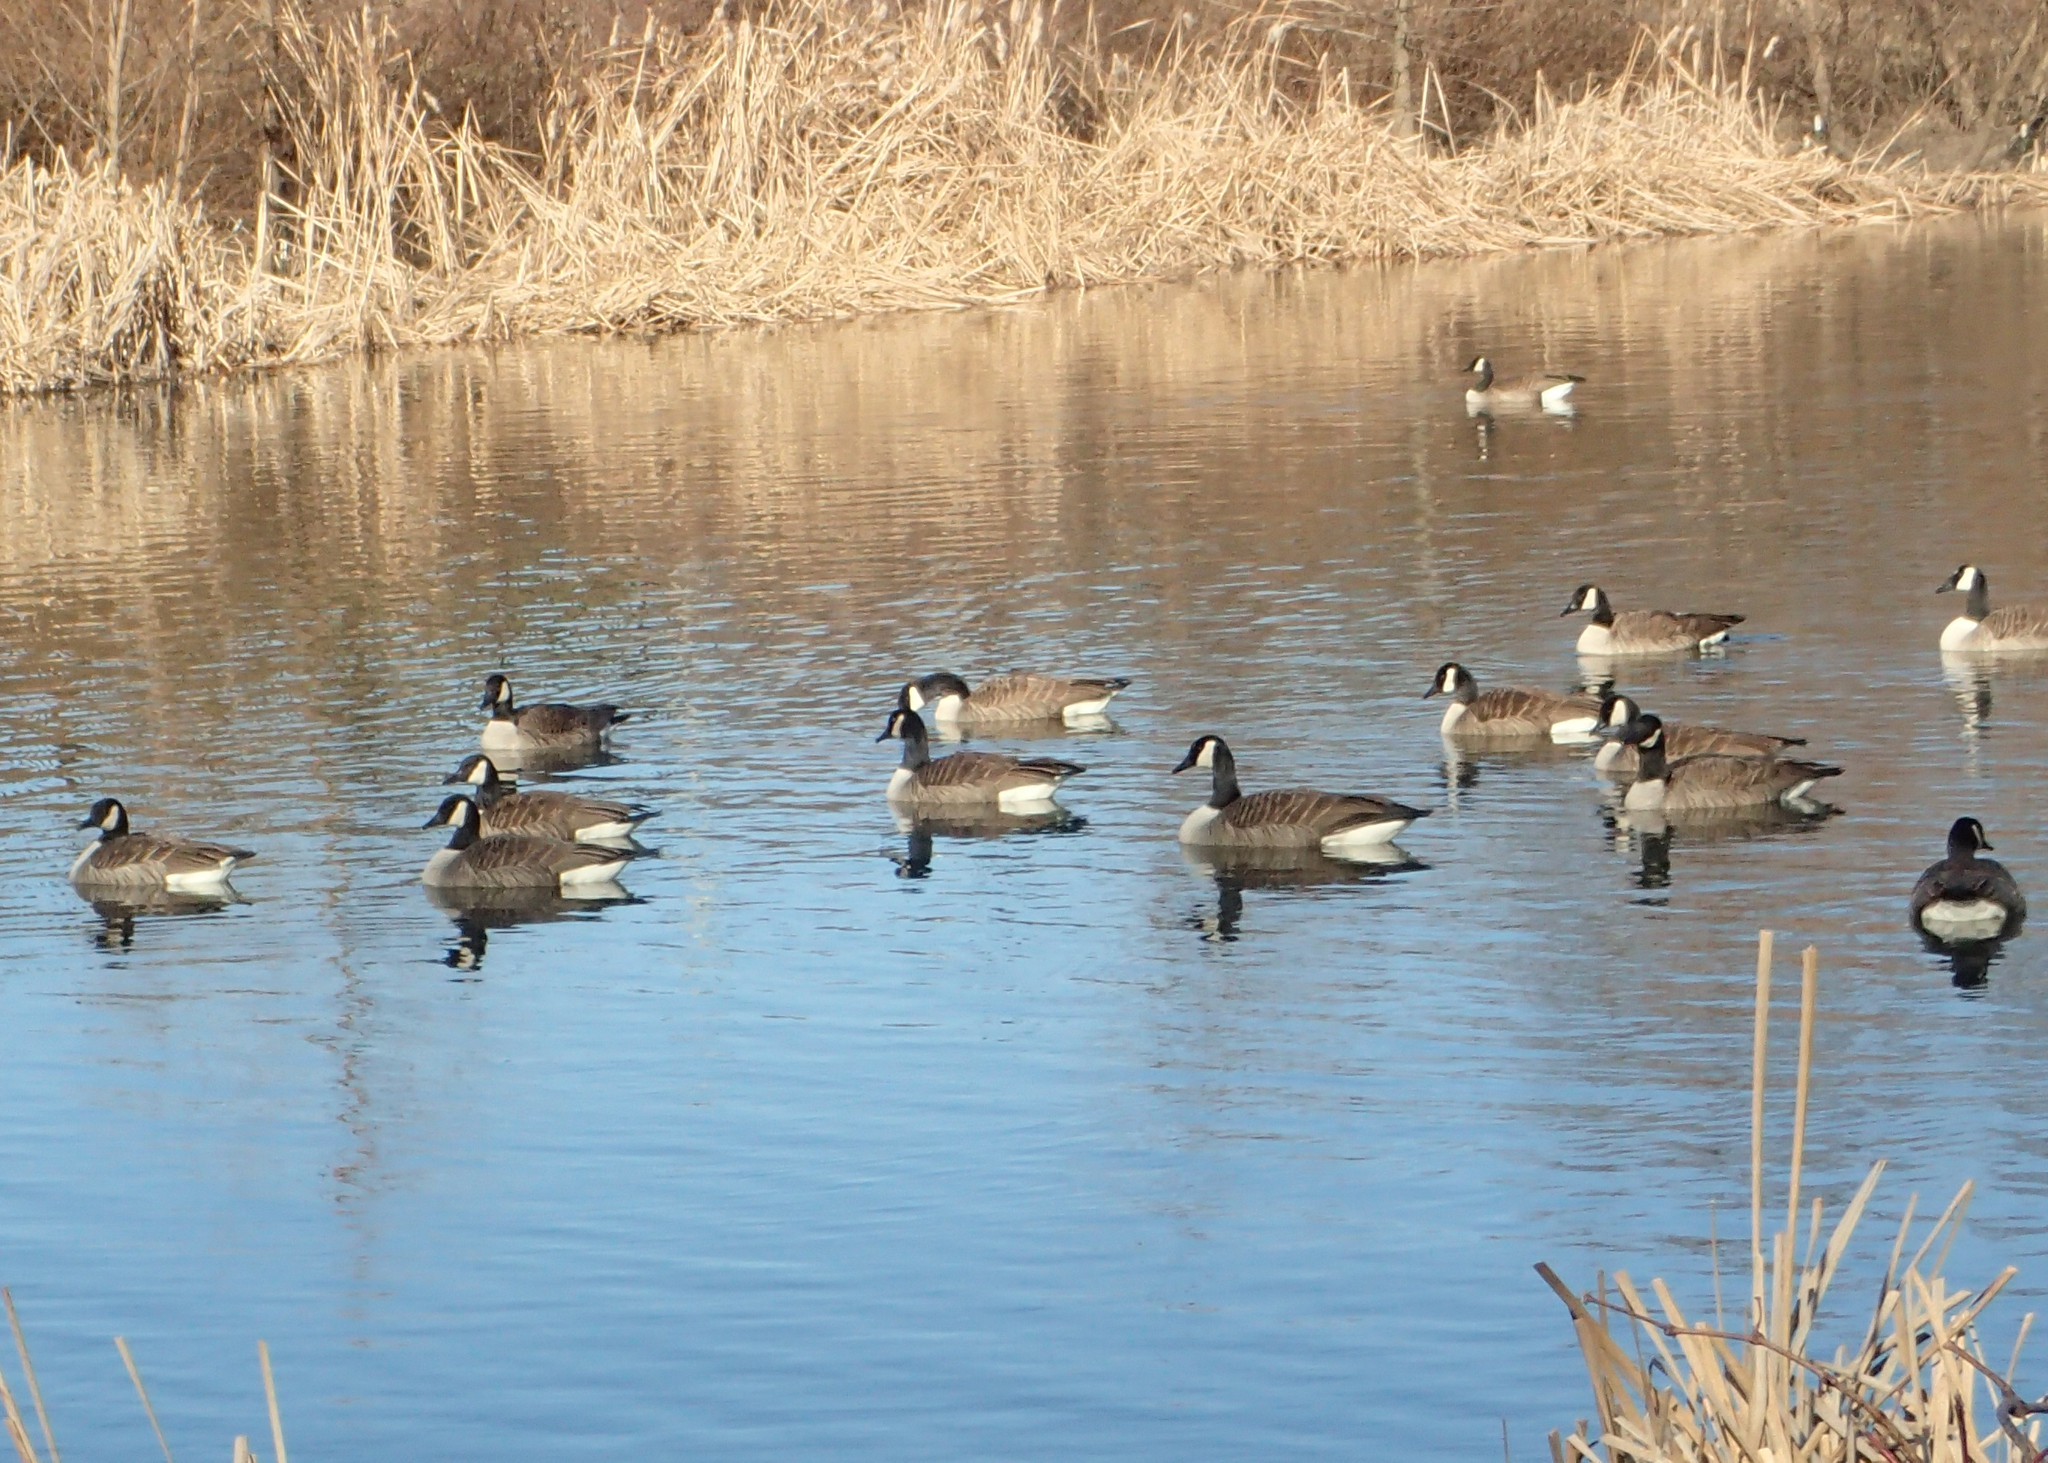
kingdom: Animalia
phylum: Chordata
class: Aves
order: Anseriformes
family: Anatidae
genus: Branta
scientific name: Branta canadensis
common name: Canada goose
